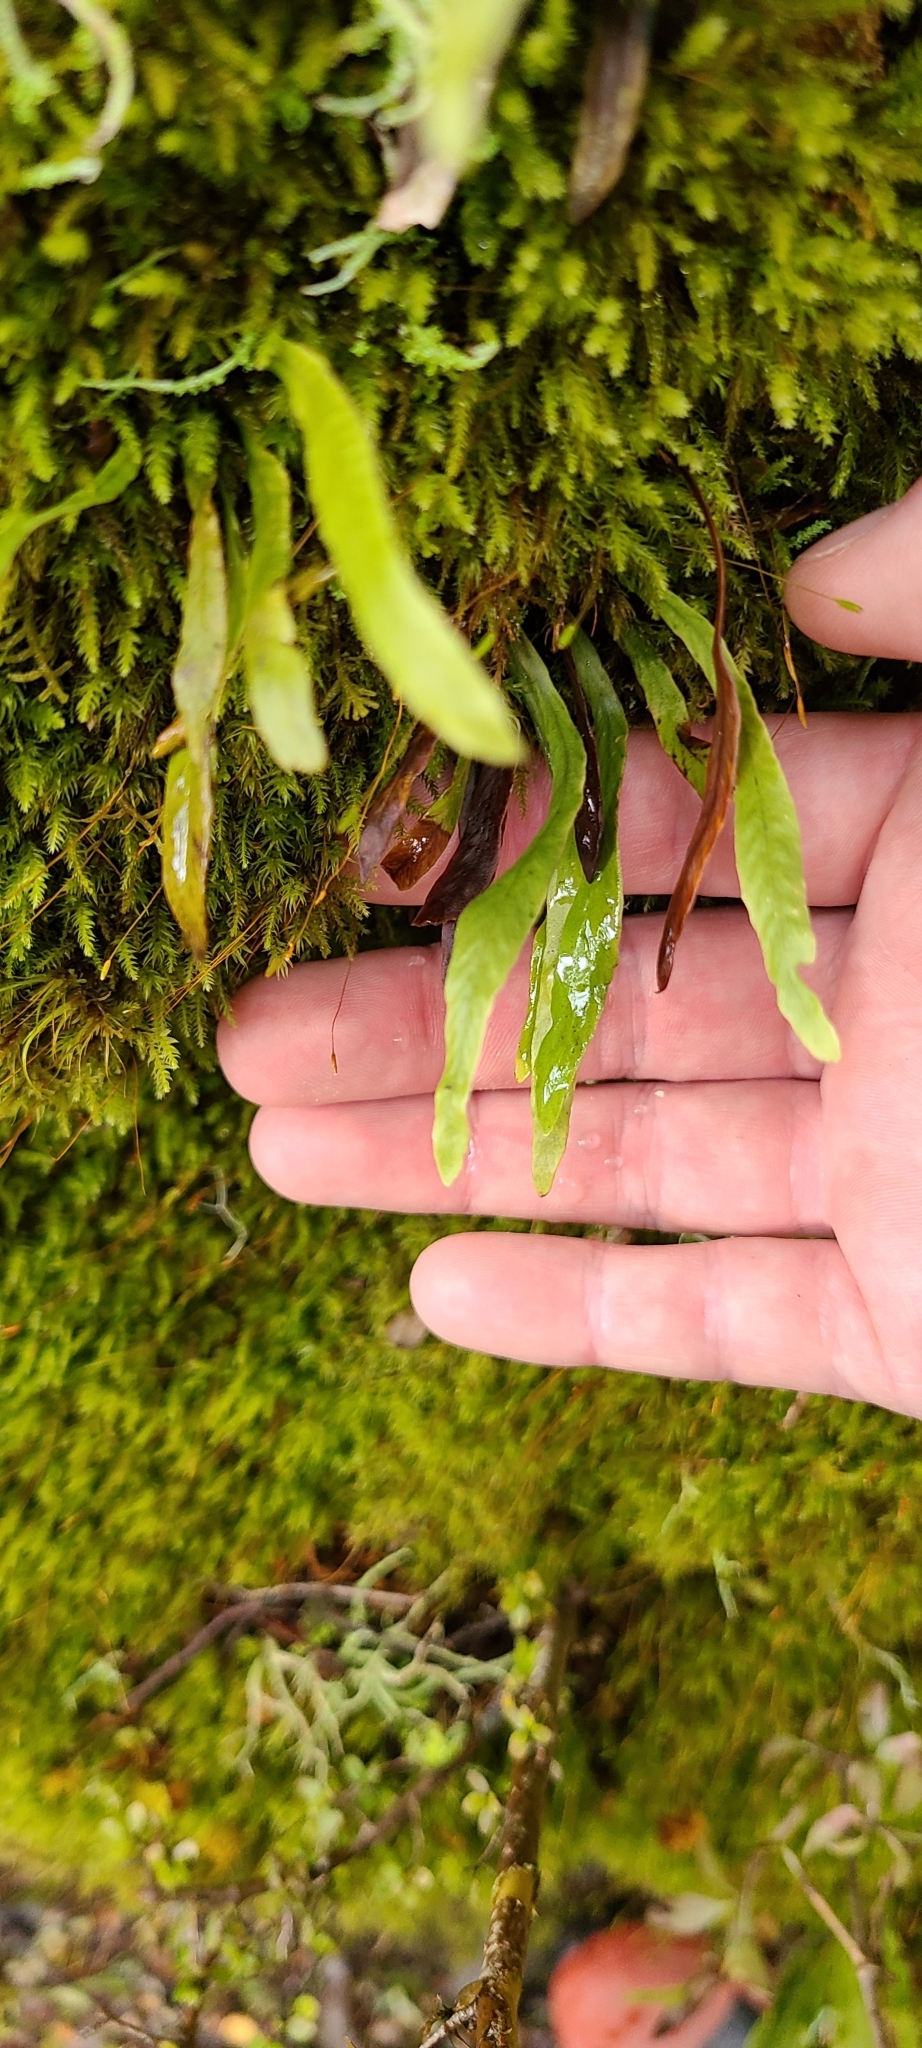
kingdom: Plantae
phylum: Tracheophyta
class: Polypodiopsida
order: Polypodiales
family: Polypodiaceae
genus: Notogrammitis
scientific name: Notogrammitis billardierei
